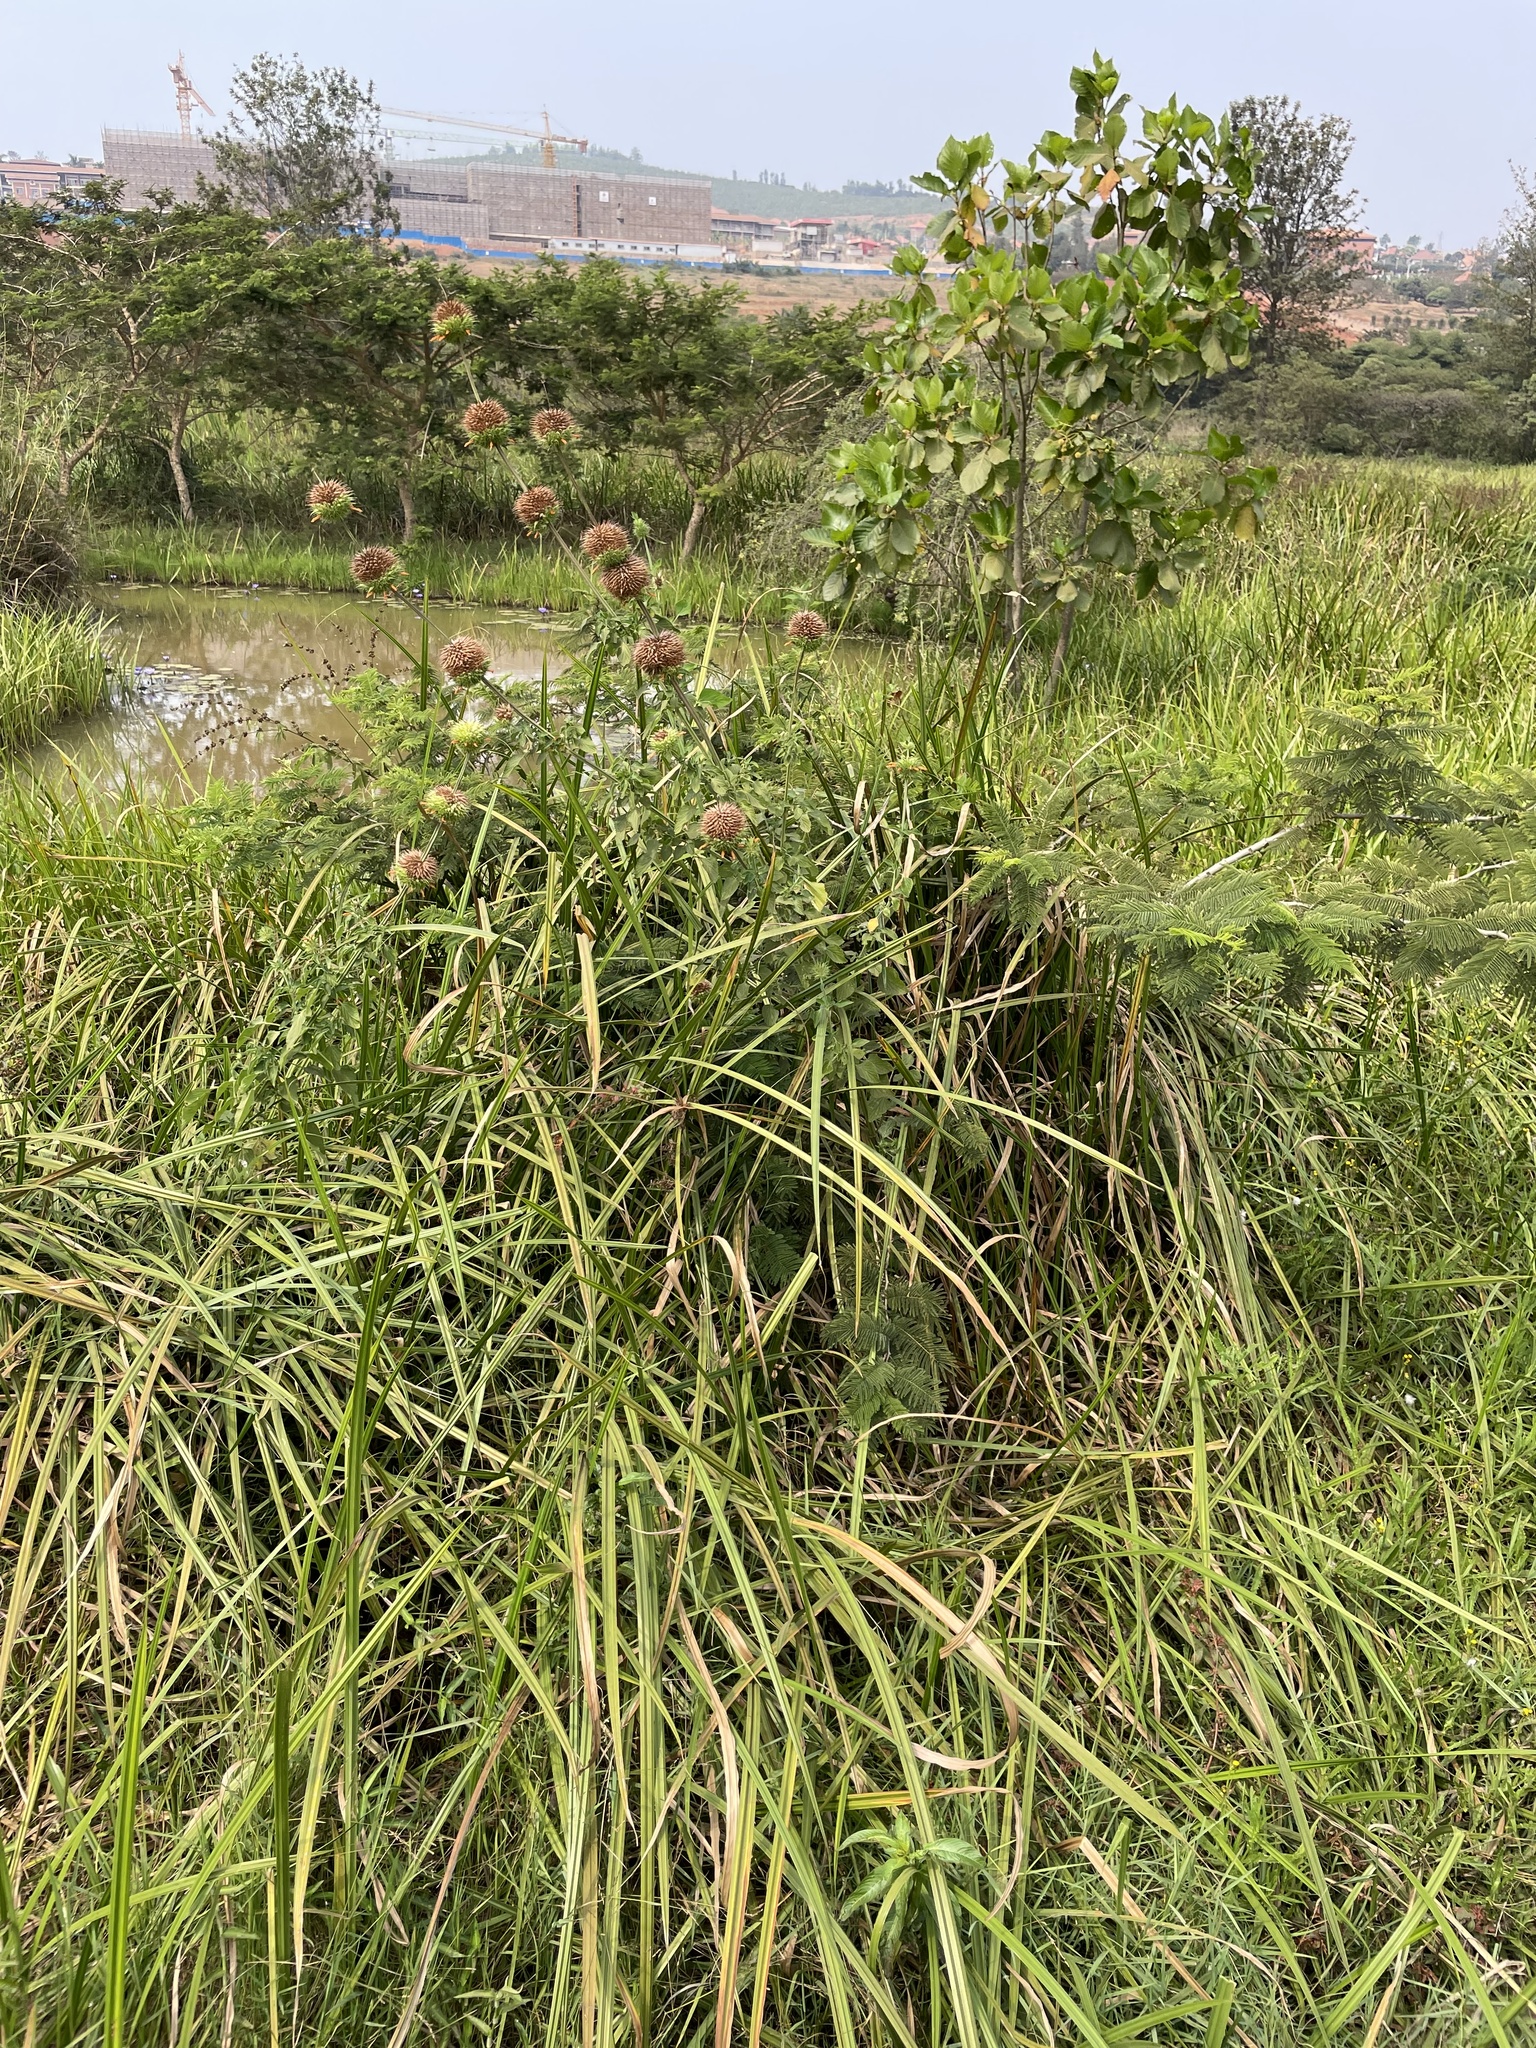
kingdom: Plantae
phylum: Tracheophyta
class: Magnoliopsida
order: Lamiales
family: Lamiaceae
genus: Leonotis
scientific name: Leonotis nepetifolia
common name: Christmas candlestick
